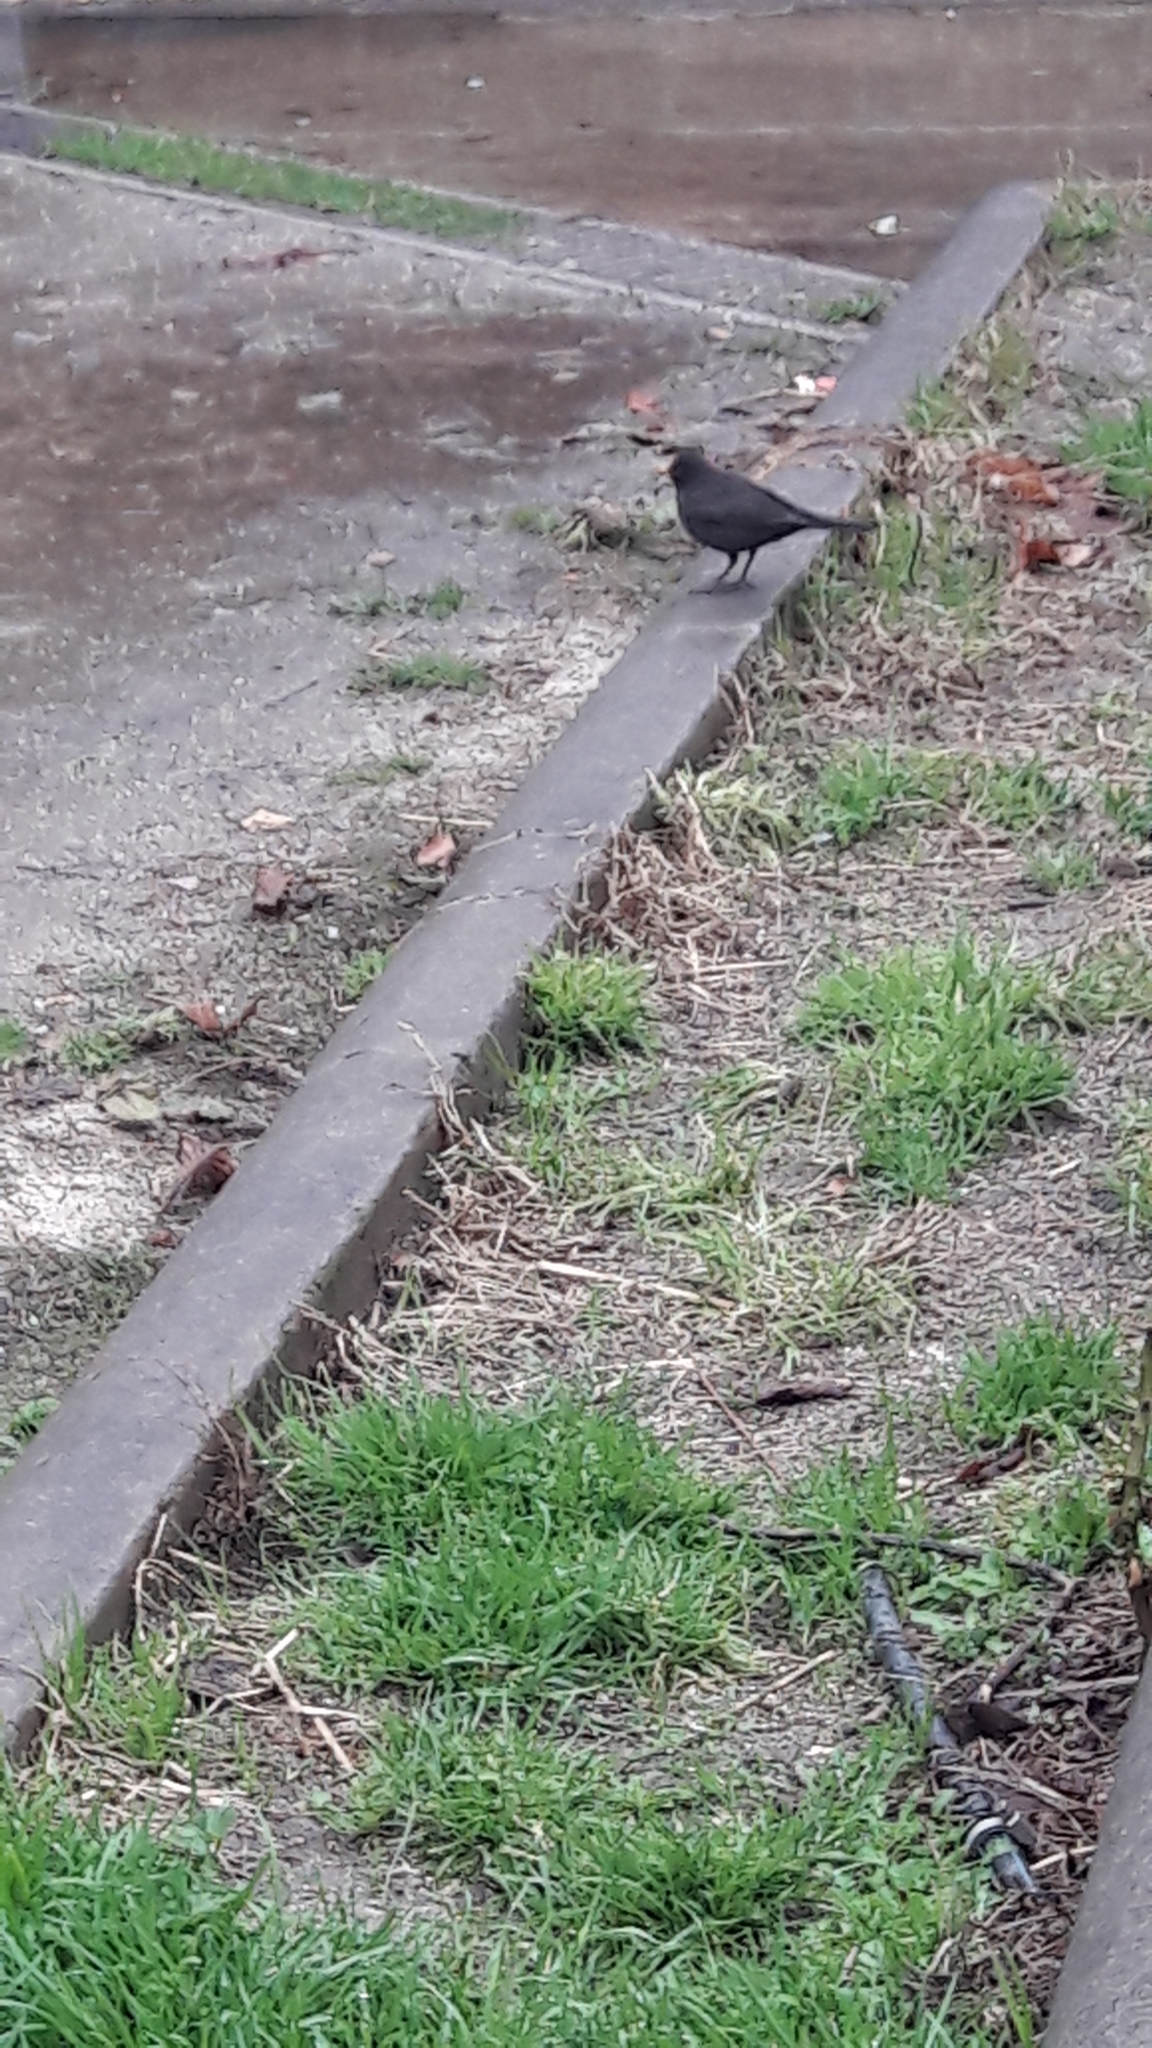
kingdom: Animalia
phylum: Chordata
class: Aves
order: Passeriformes
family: Turdidae
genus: Turdus
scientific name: Turdus merula
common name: Common blackbird
